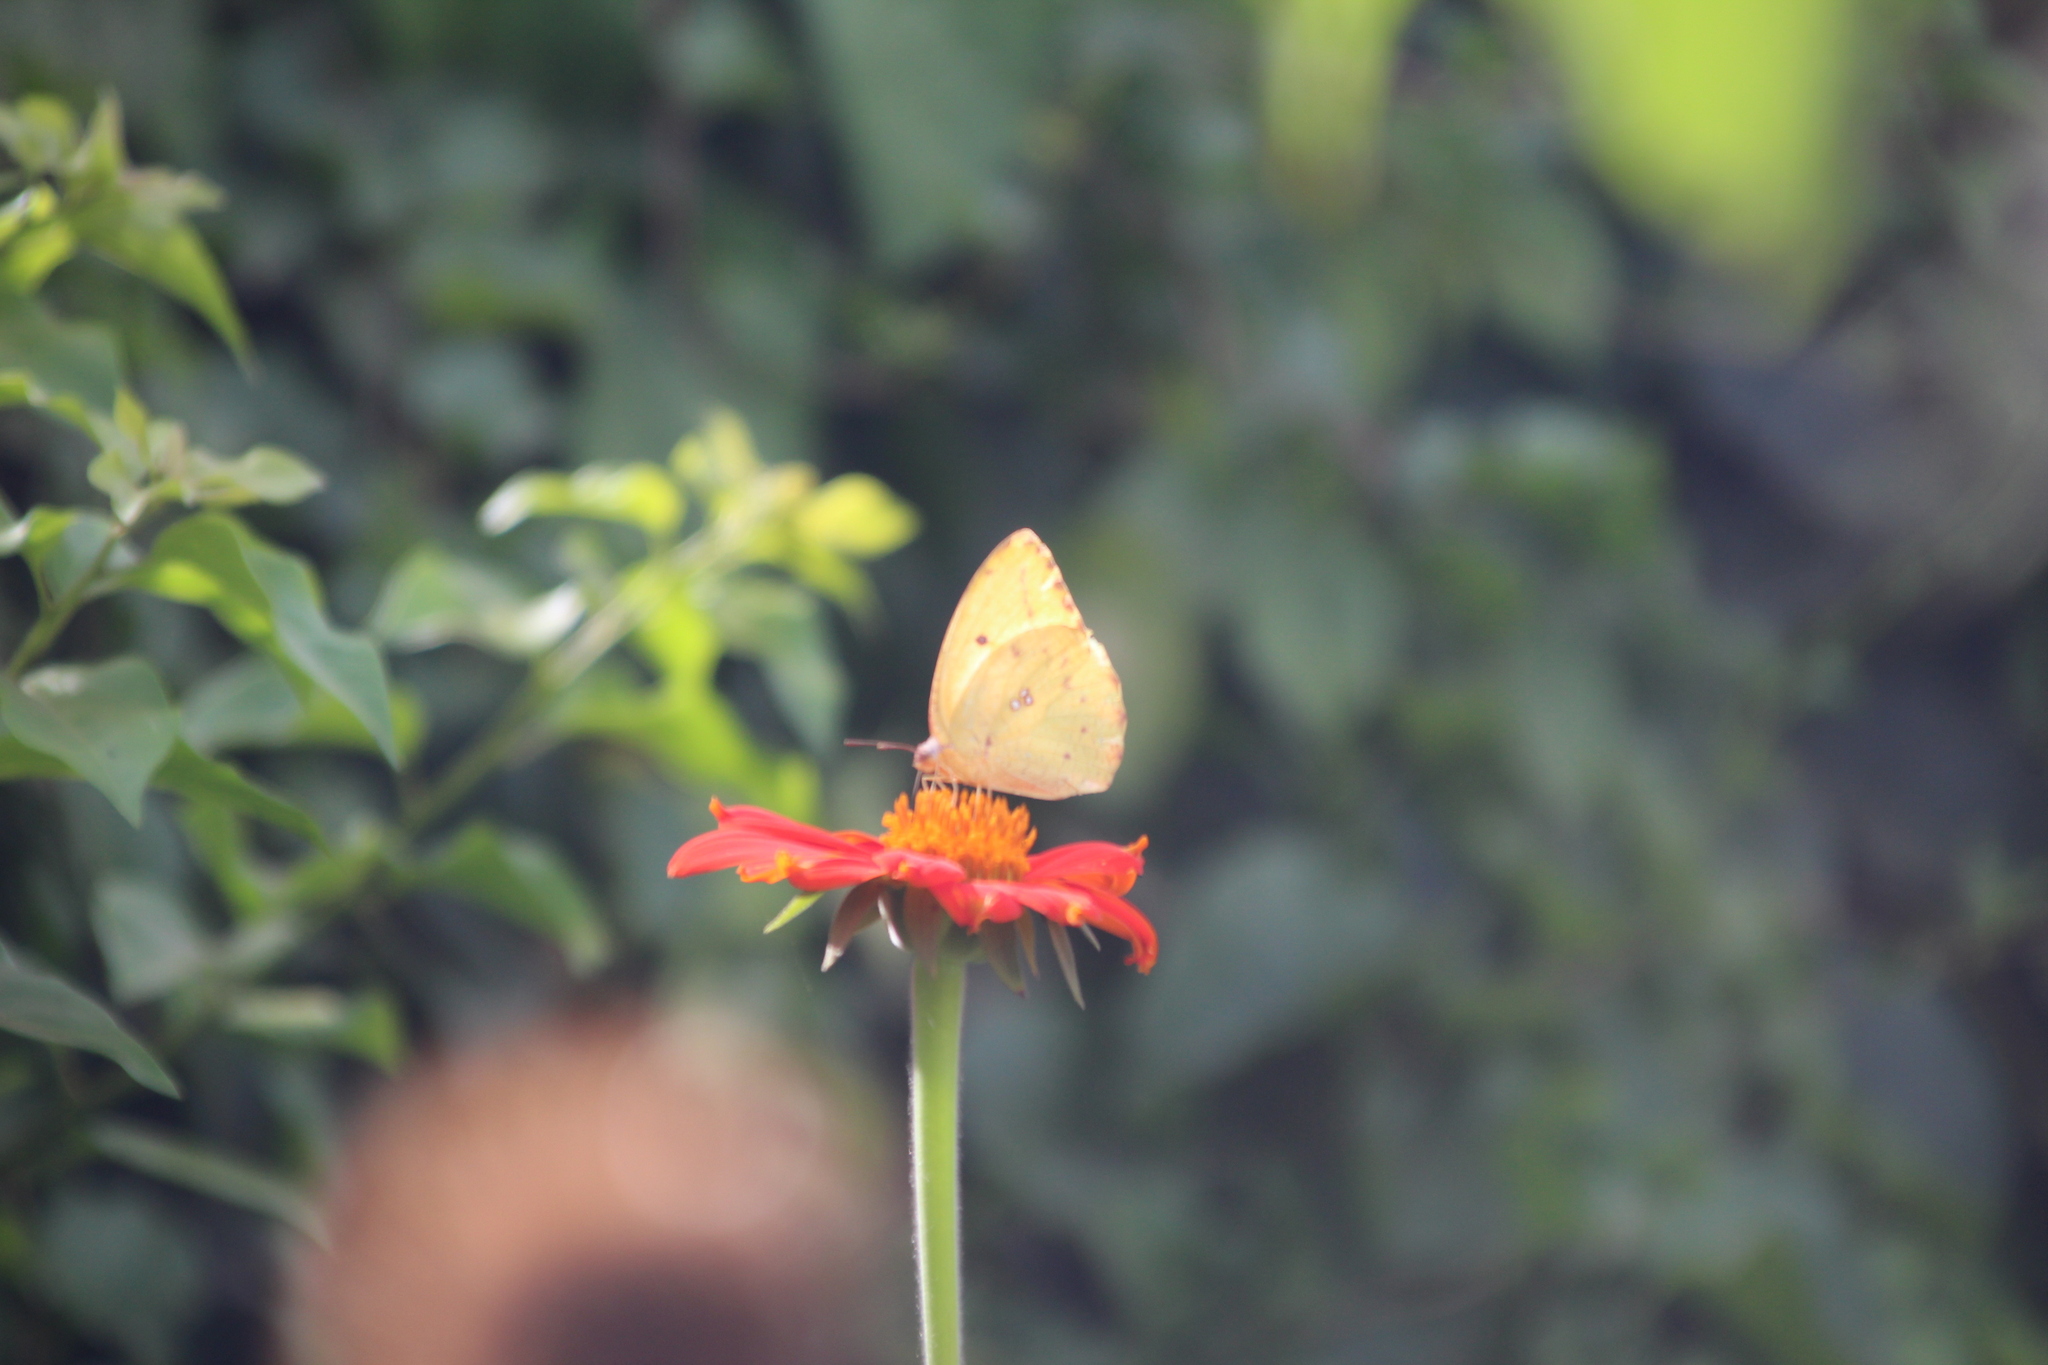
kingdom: Animalia
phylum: Arthropoda
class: Insecta
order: Lepidoptera
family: Pieridae
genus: Catopsilia
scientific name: Catopsilia florella
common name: African migrant
